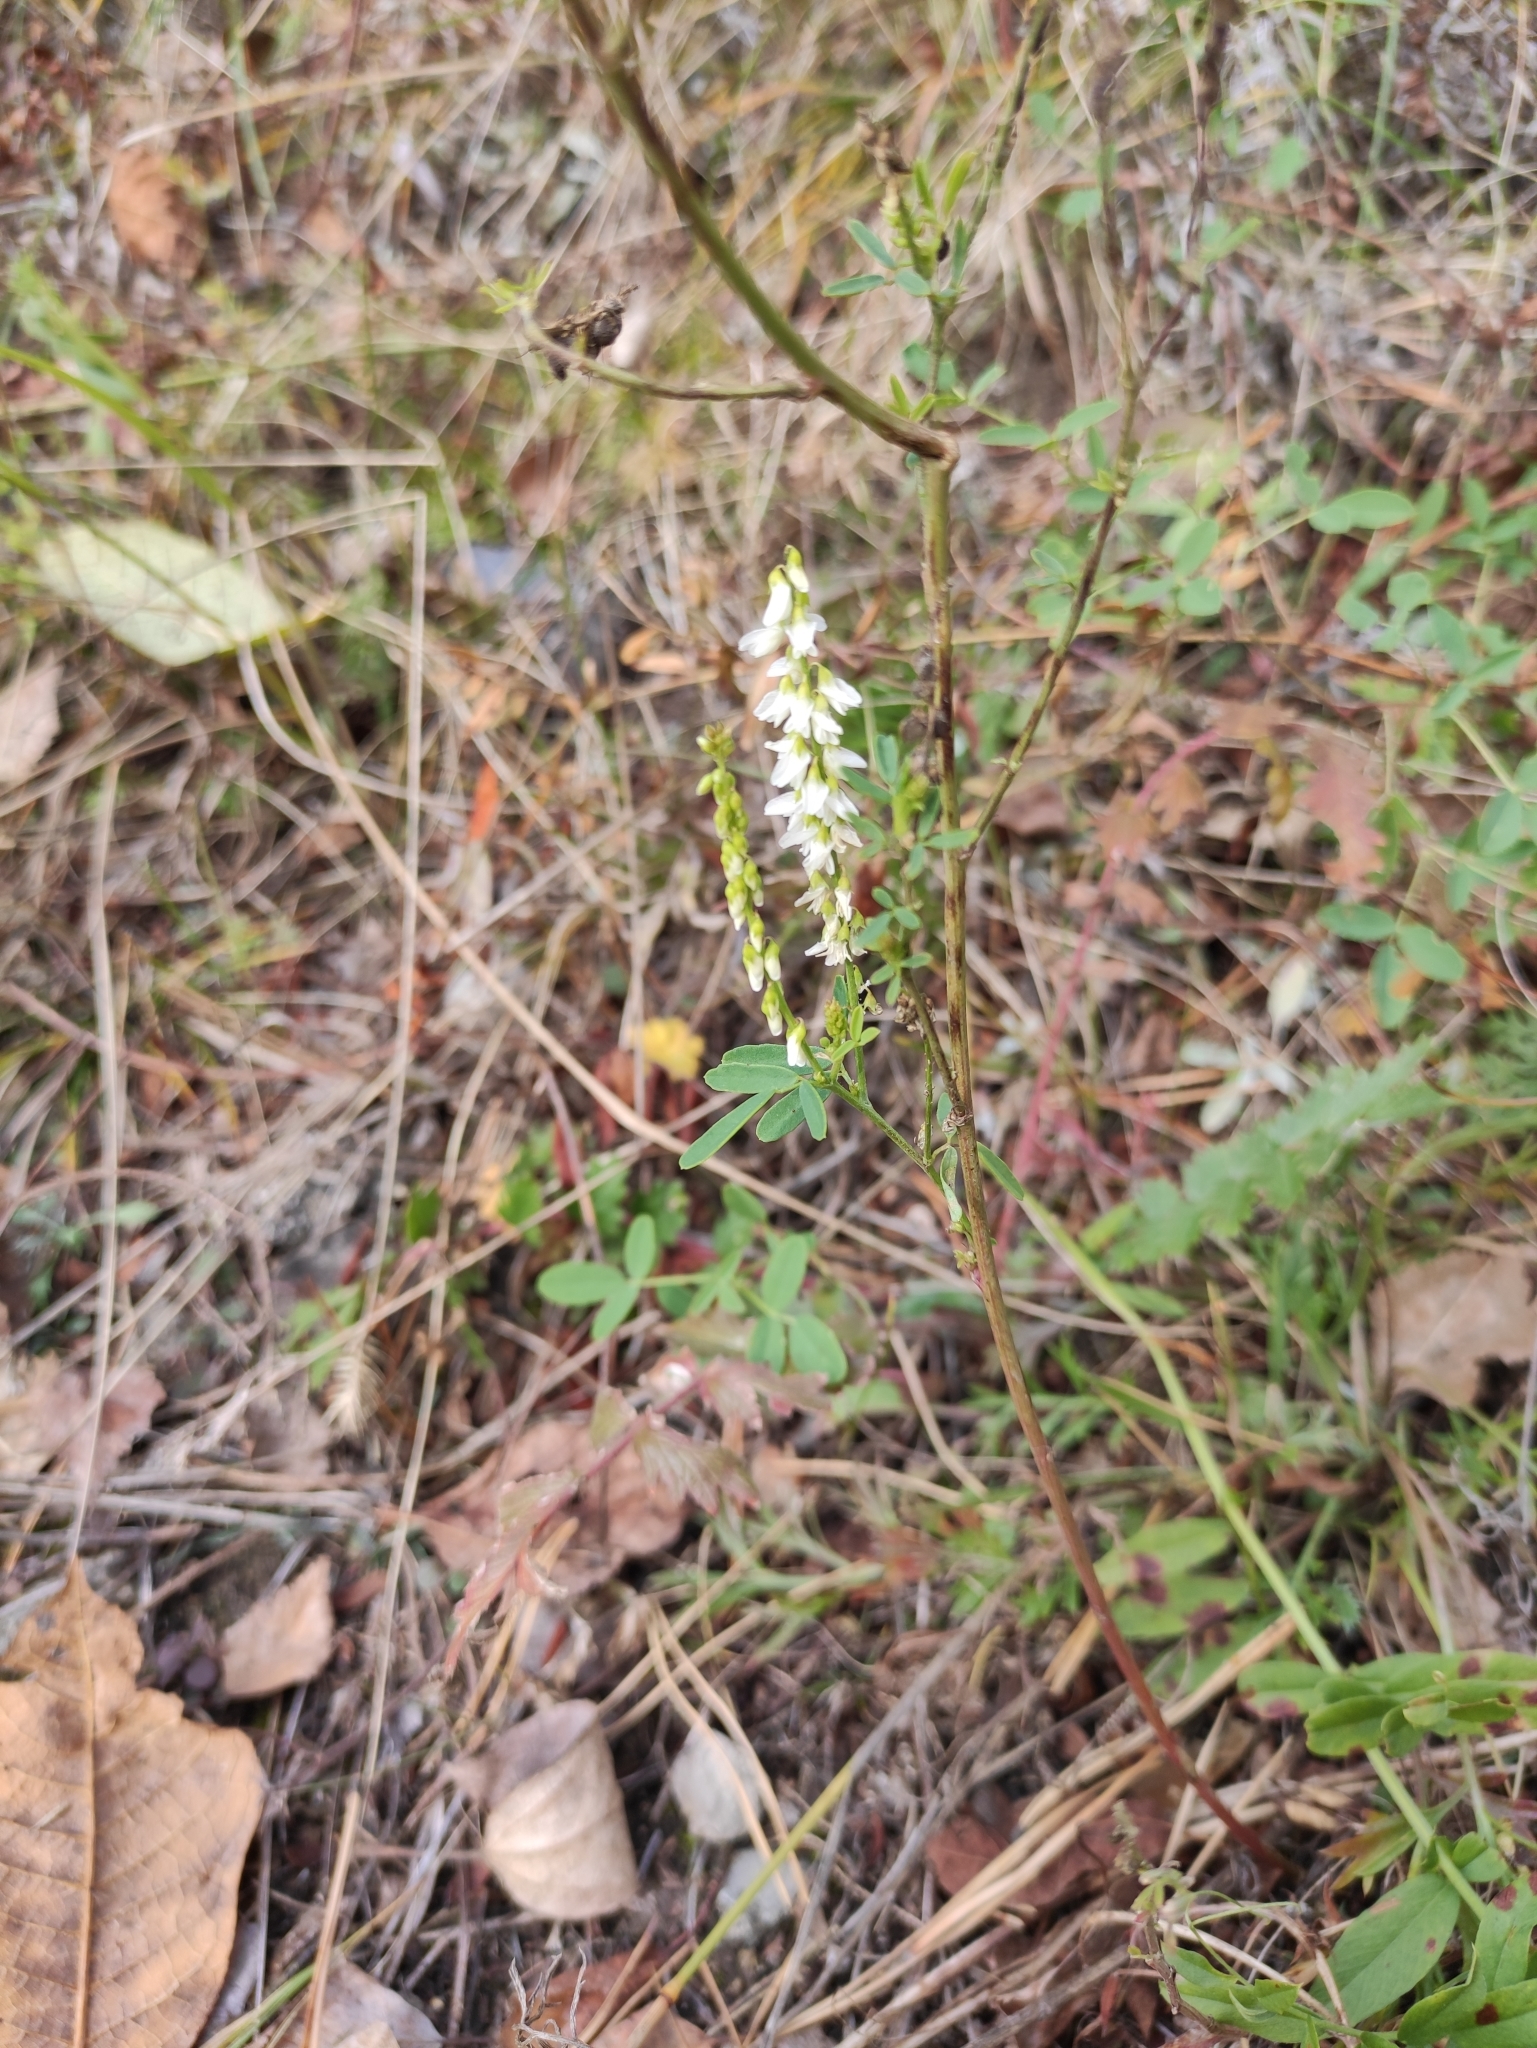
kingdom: Plantae
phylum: Tracheophyta
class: Magnoliopsida
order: Fabales
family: Fabaceae
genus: Melilotus
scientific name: Melilotus albus
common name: White melilot
